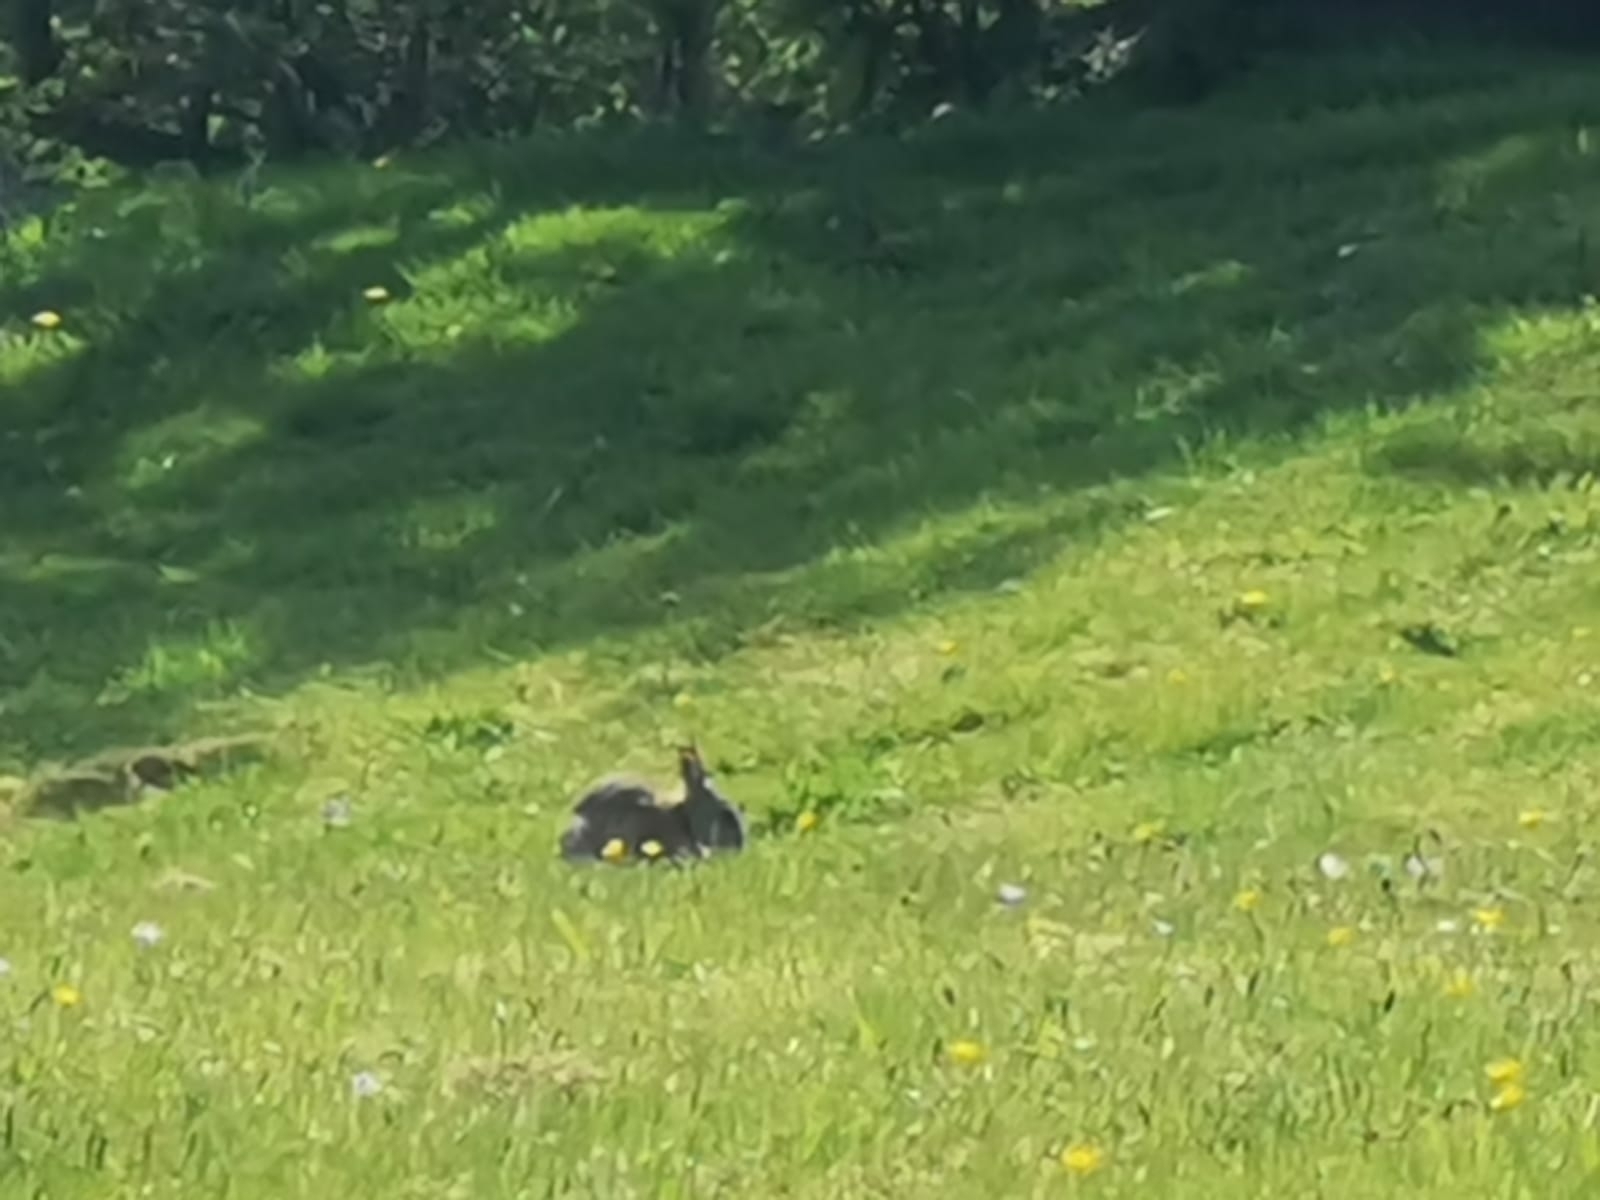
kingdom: Animalia
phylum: Chordata
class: Mammalia
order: Lagomorpha
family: Leporidae
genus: Oryctolagus
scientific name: Oryctolagus cuniculus
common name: European rabbit
